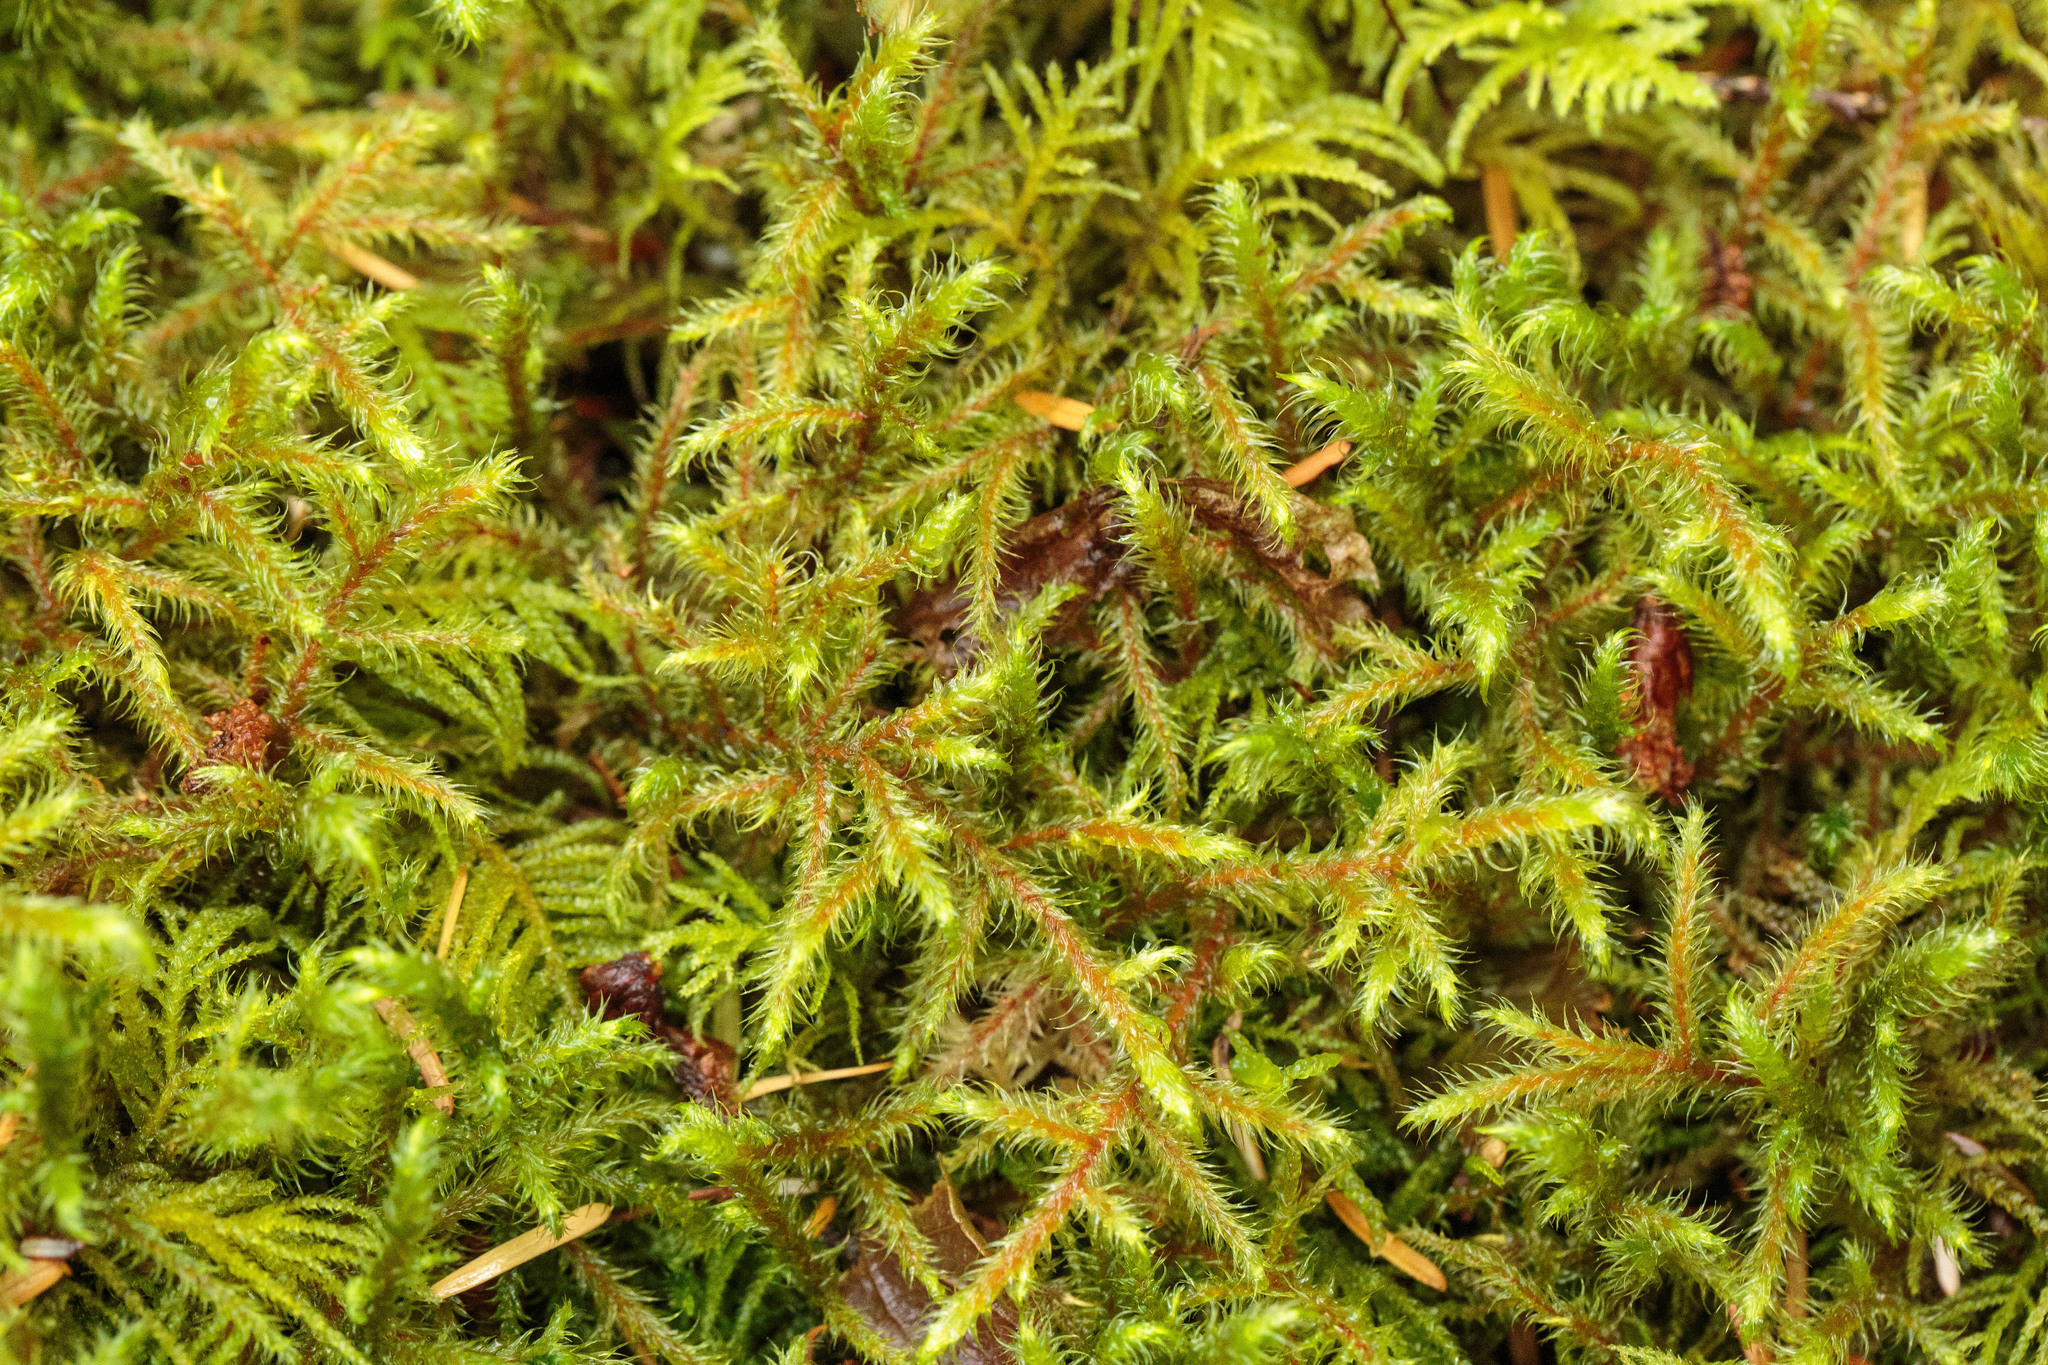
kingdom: Plantae
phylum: Bryophyta
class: Bryopsida
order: Hypnales
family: Hylocomiaceae
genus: Rhytidiadelphus
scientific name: Rhytidiadelphus loreus
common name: Lanky moss
